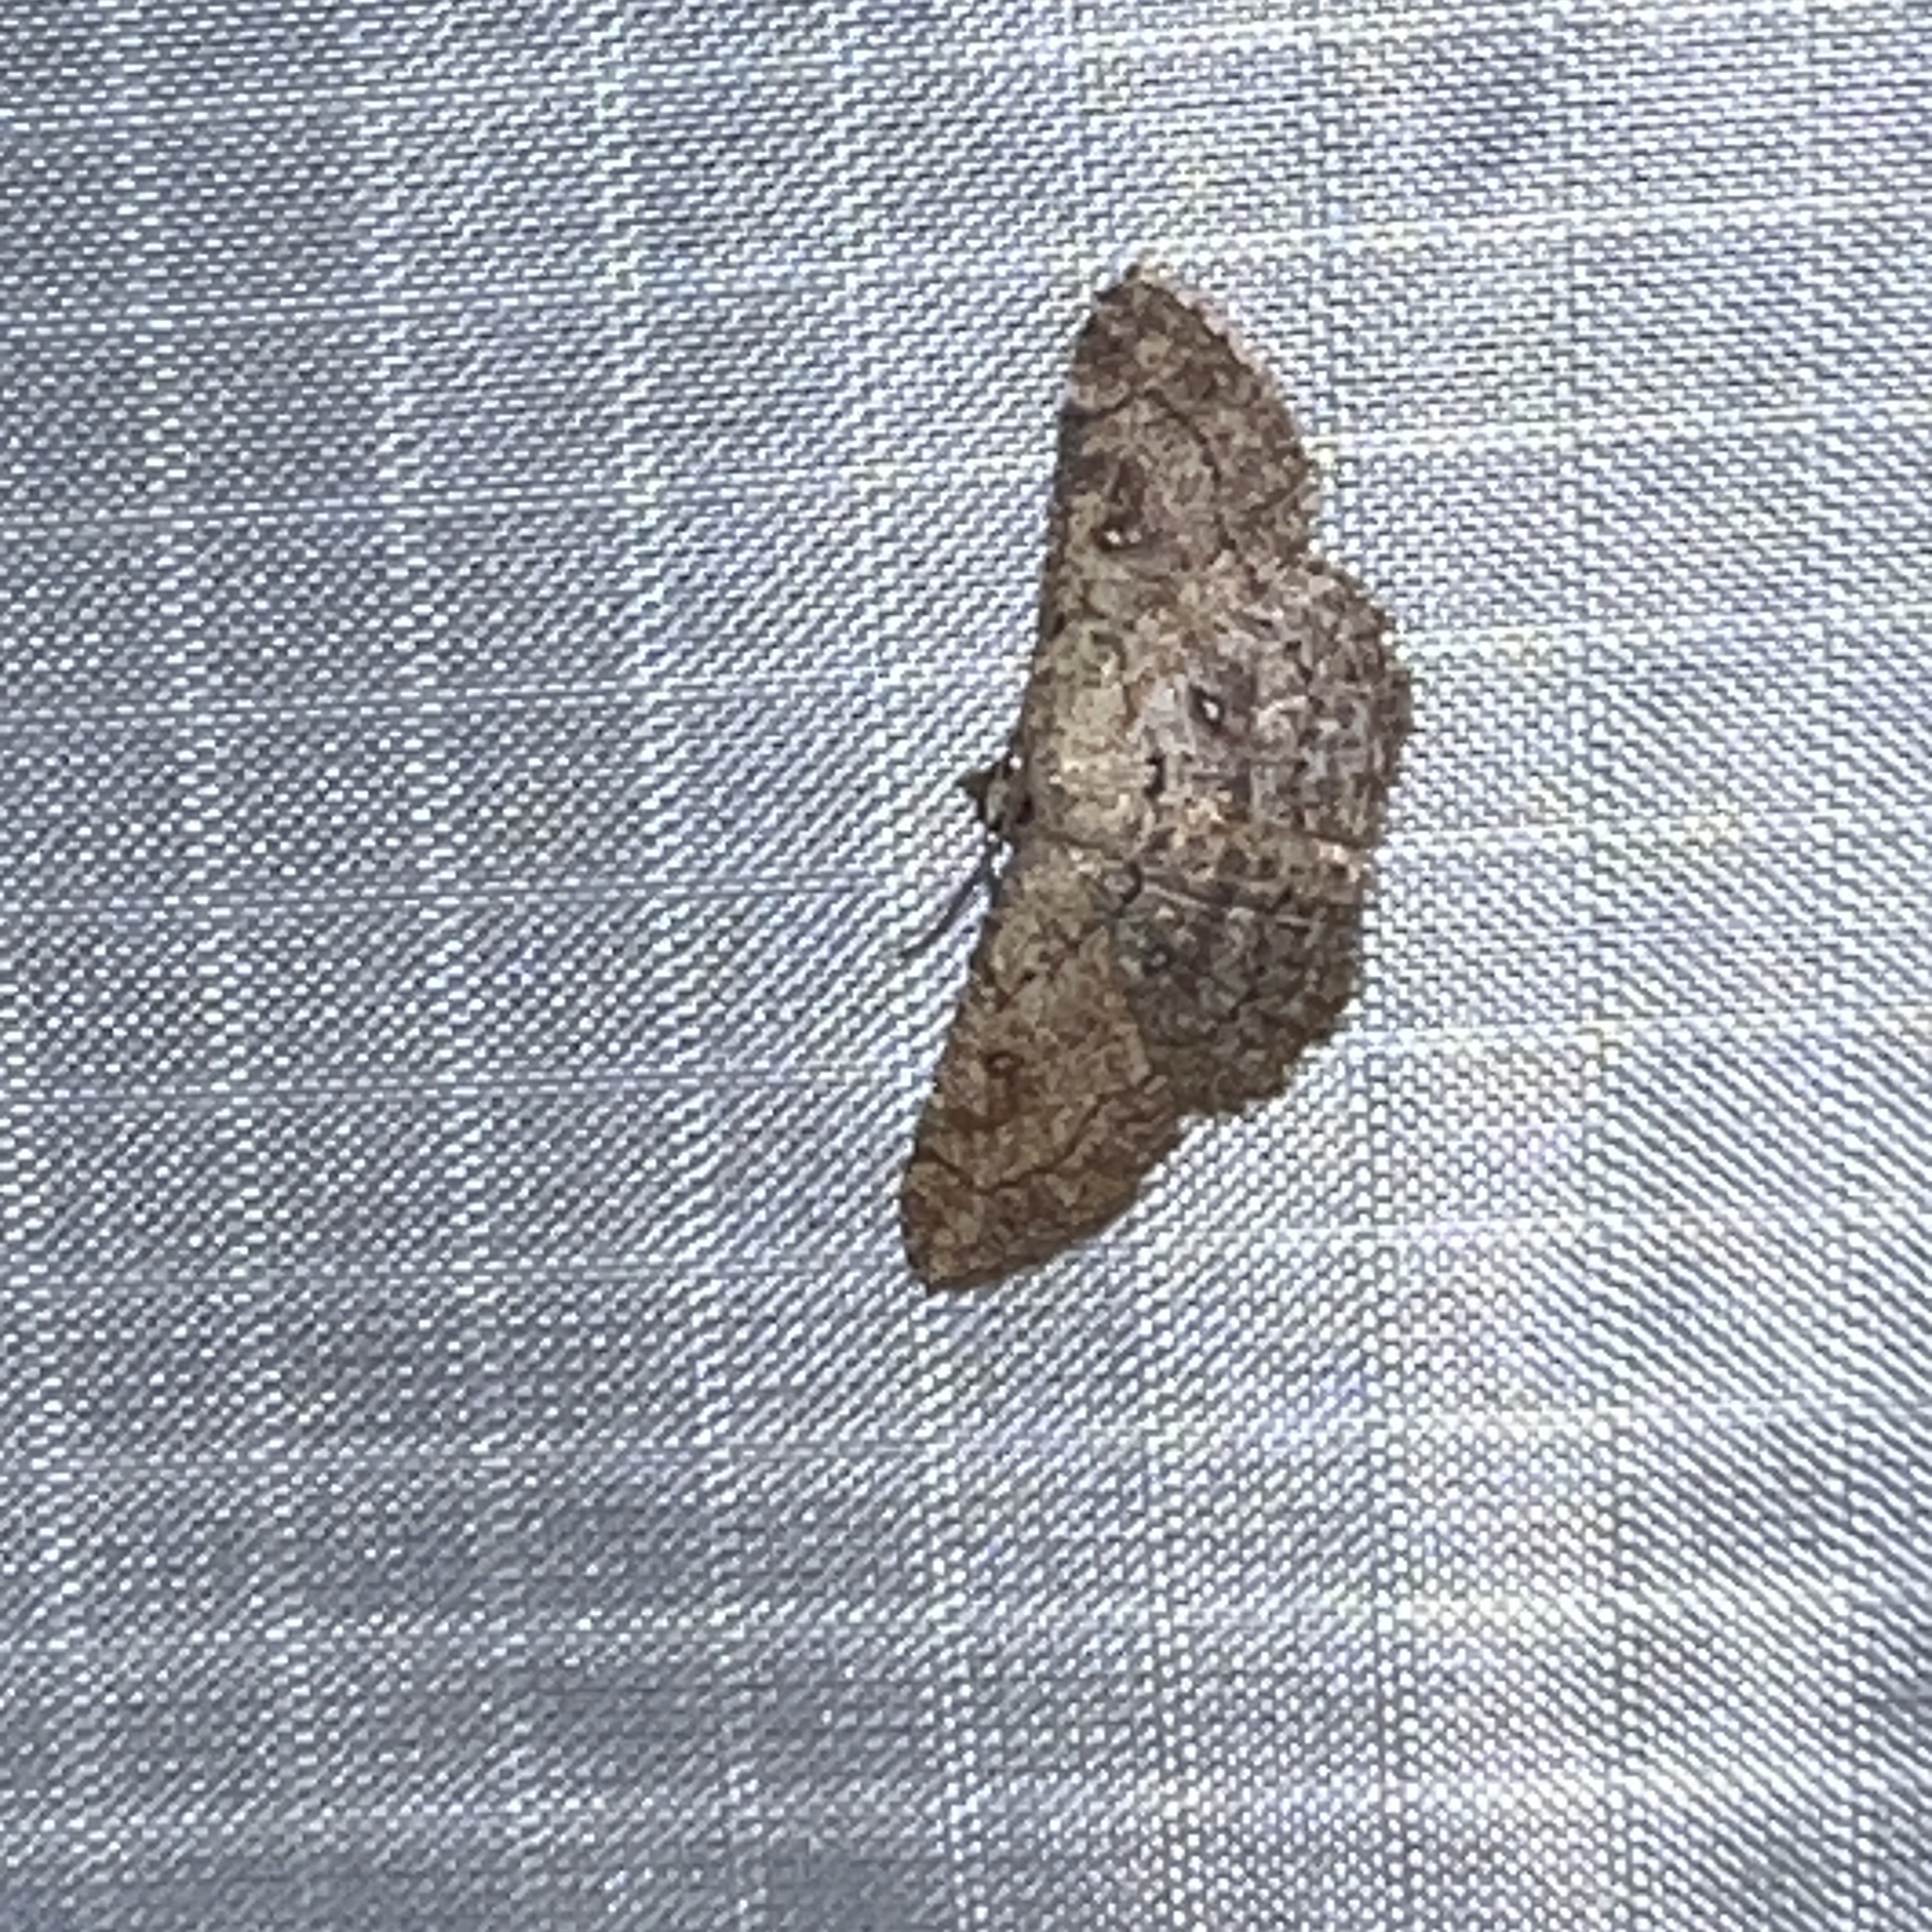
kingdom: Animalia
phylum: Arthropoda
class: Insecta
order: Lepidoptera
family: Geometridae
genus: Cyclophora
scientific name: Cyclophora nanaria
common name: Cankerworm
